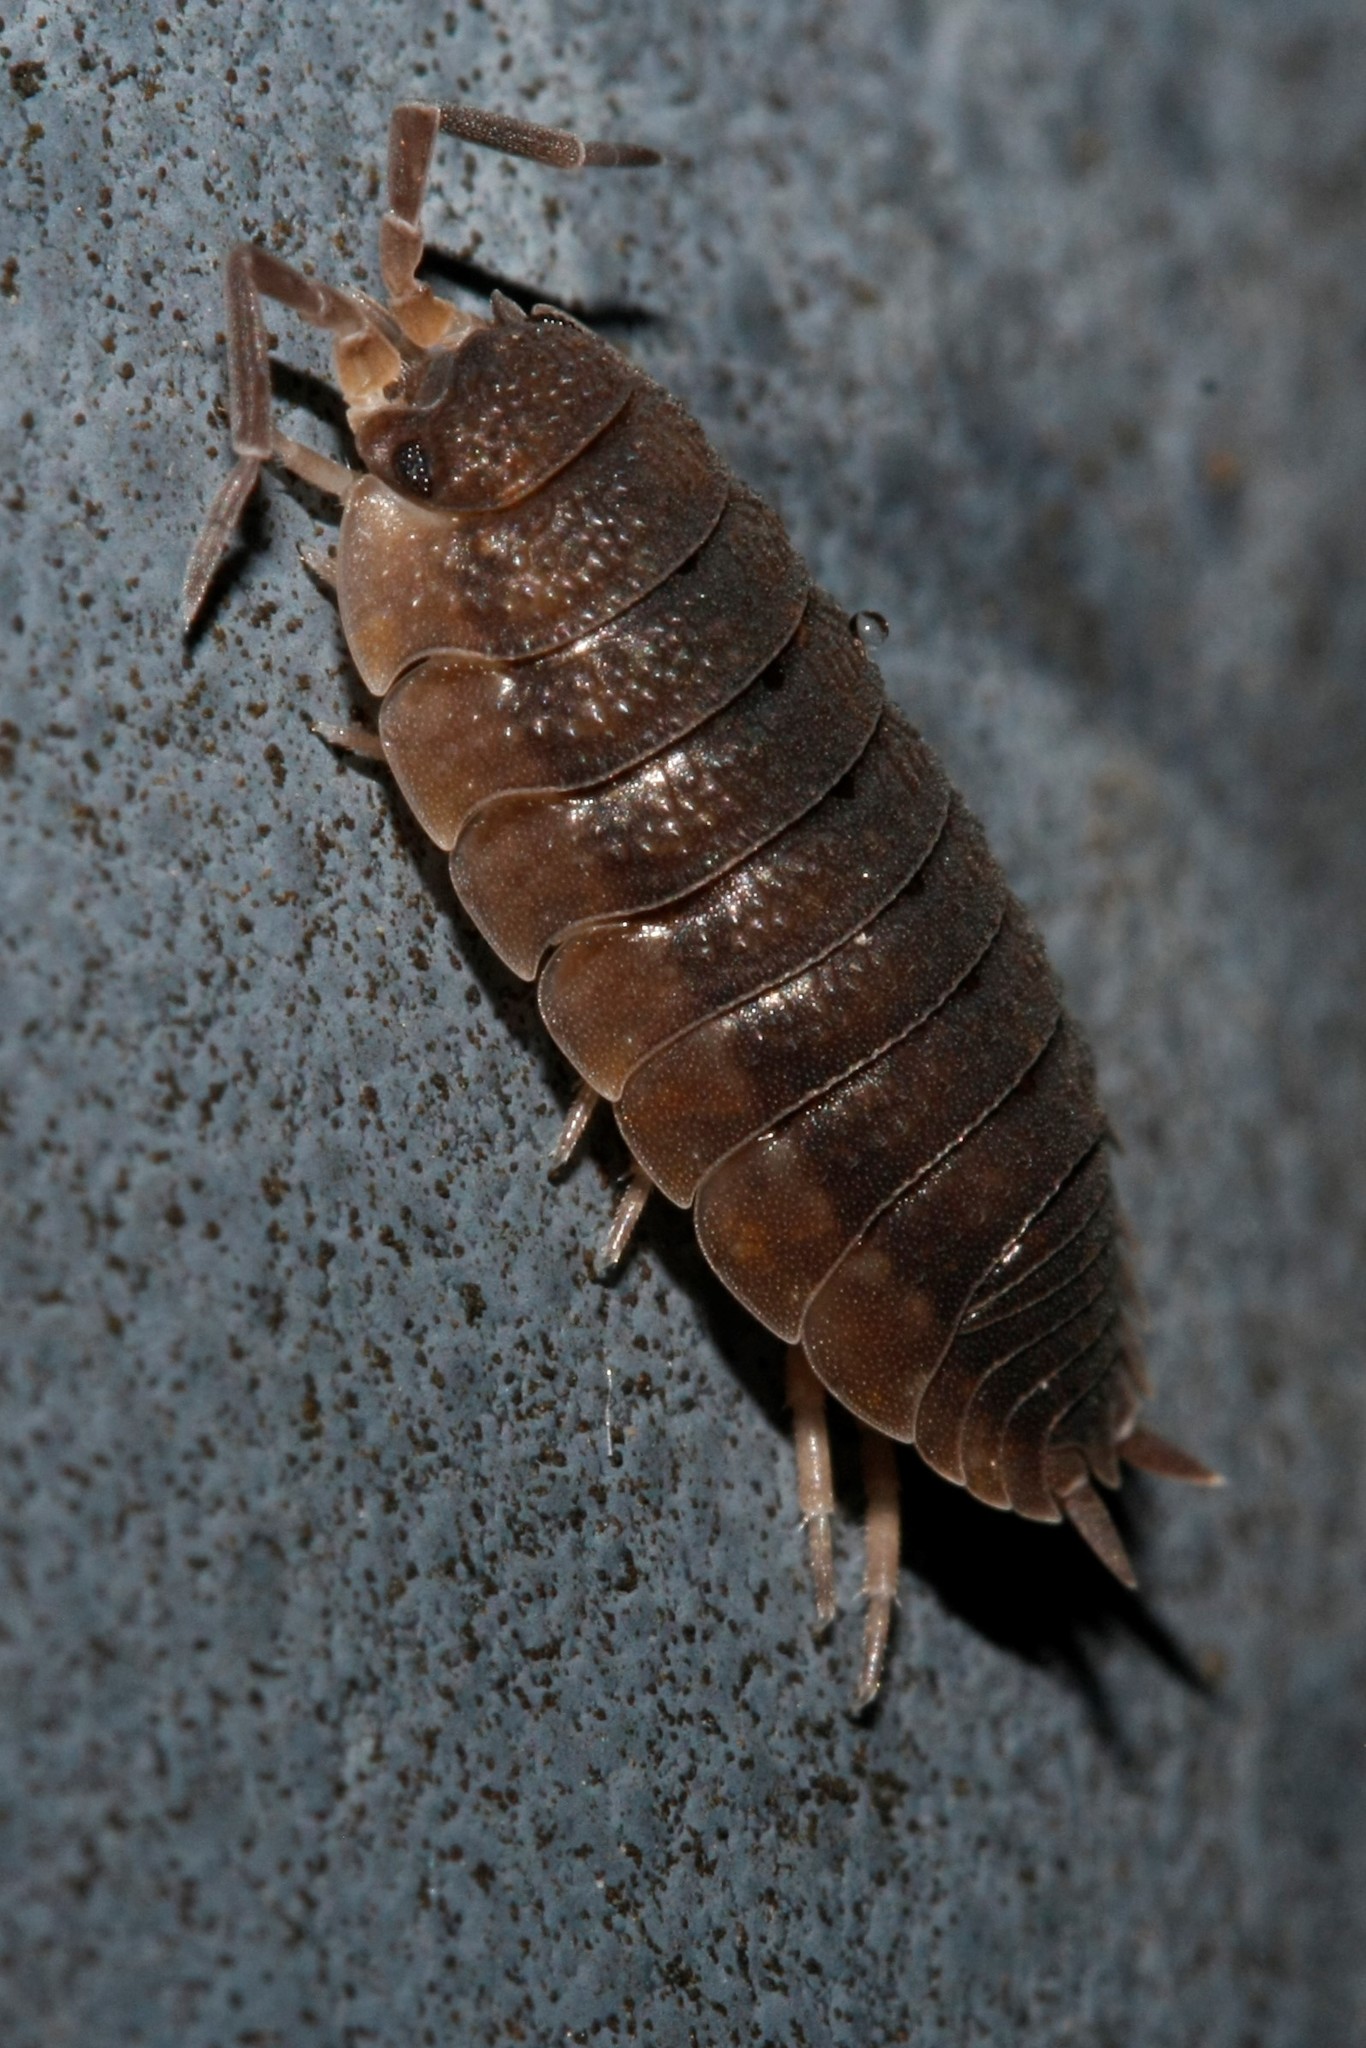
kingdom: Animalia
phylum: Arthropoda
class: Malacostraca
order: Isopoda
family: Porcellionidae
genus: Porcellio
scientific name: Porcellio scaber
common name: Common rough woodlouse
